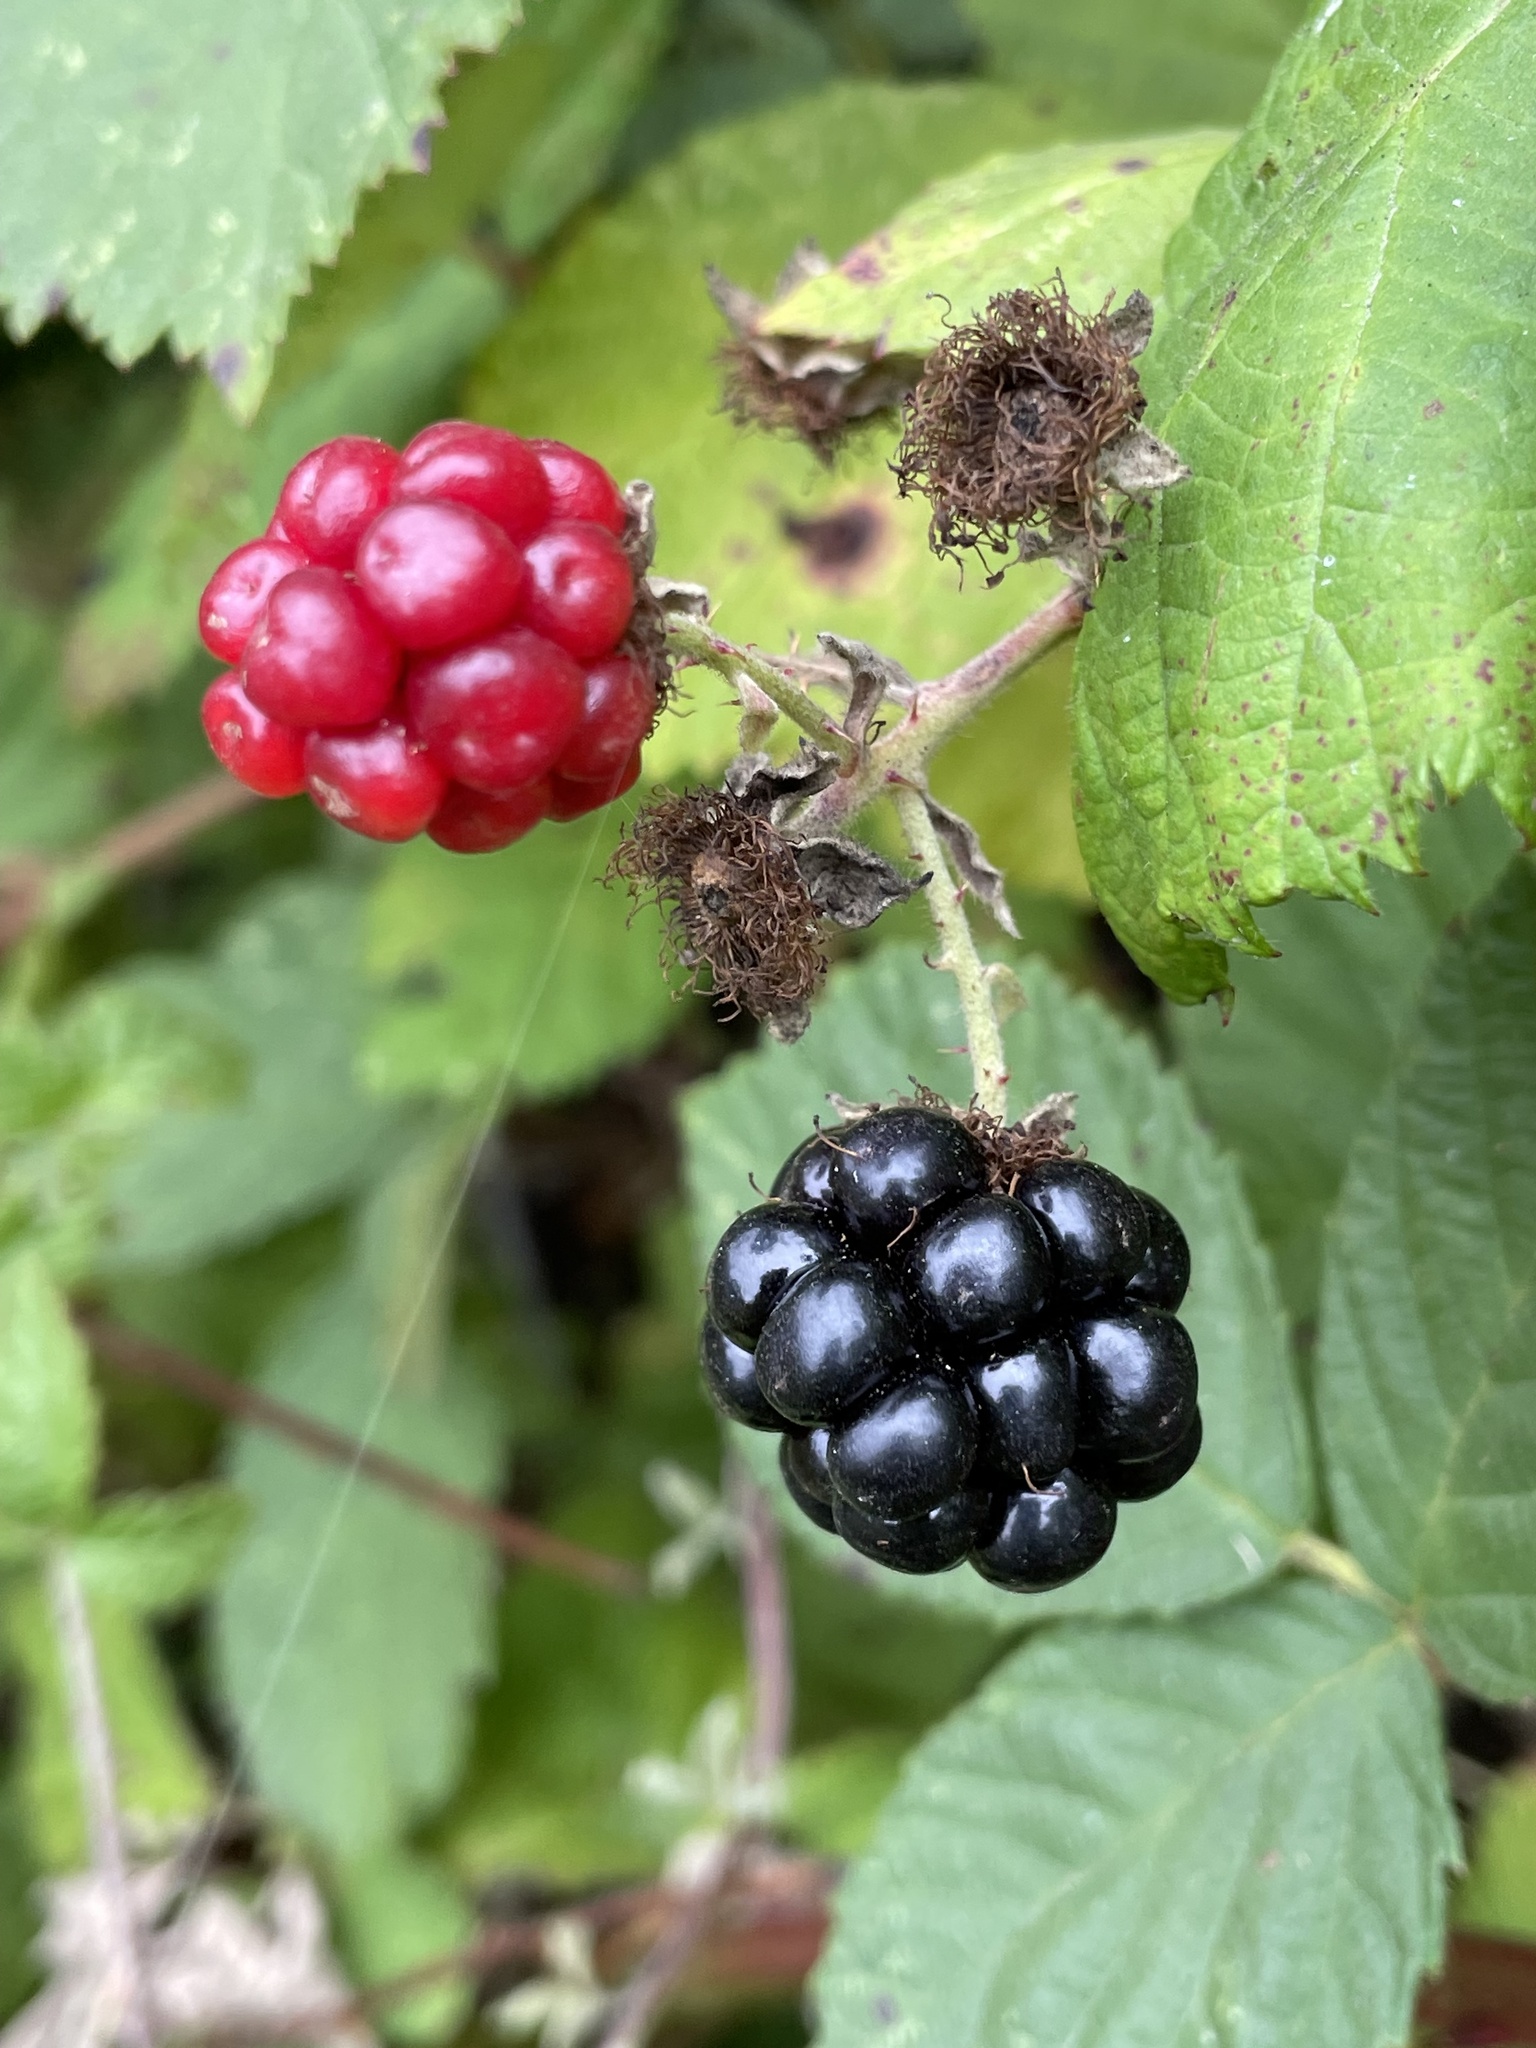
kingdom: Plantae
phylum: Tracheophyta
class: Magnoliopsida
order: Rosales
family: Rosaceae
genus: Rubus
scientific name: Rubus armeniacus
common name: Himalayan blackberry
